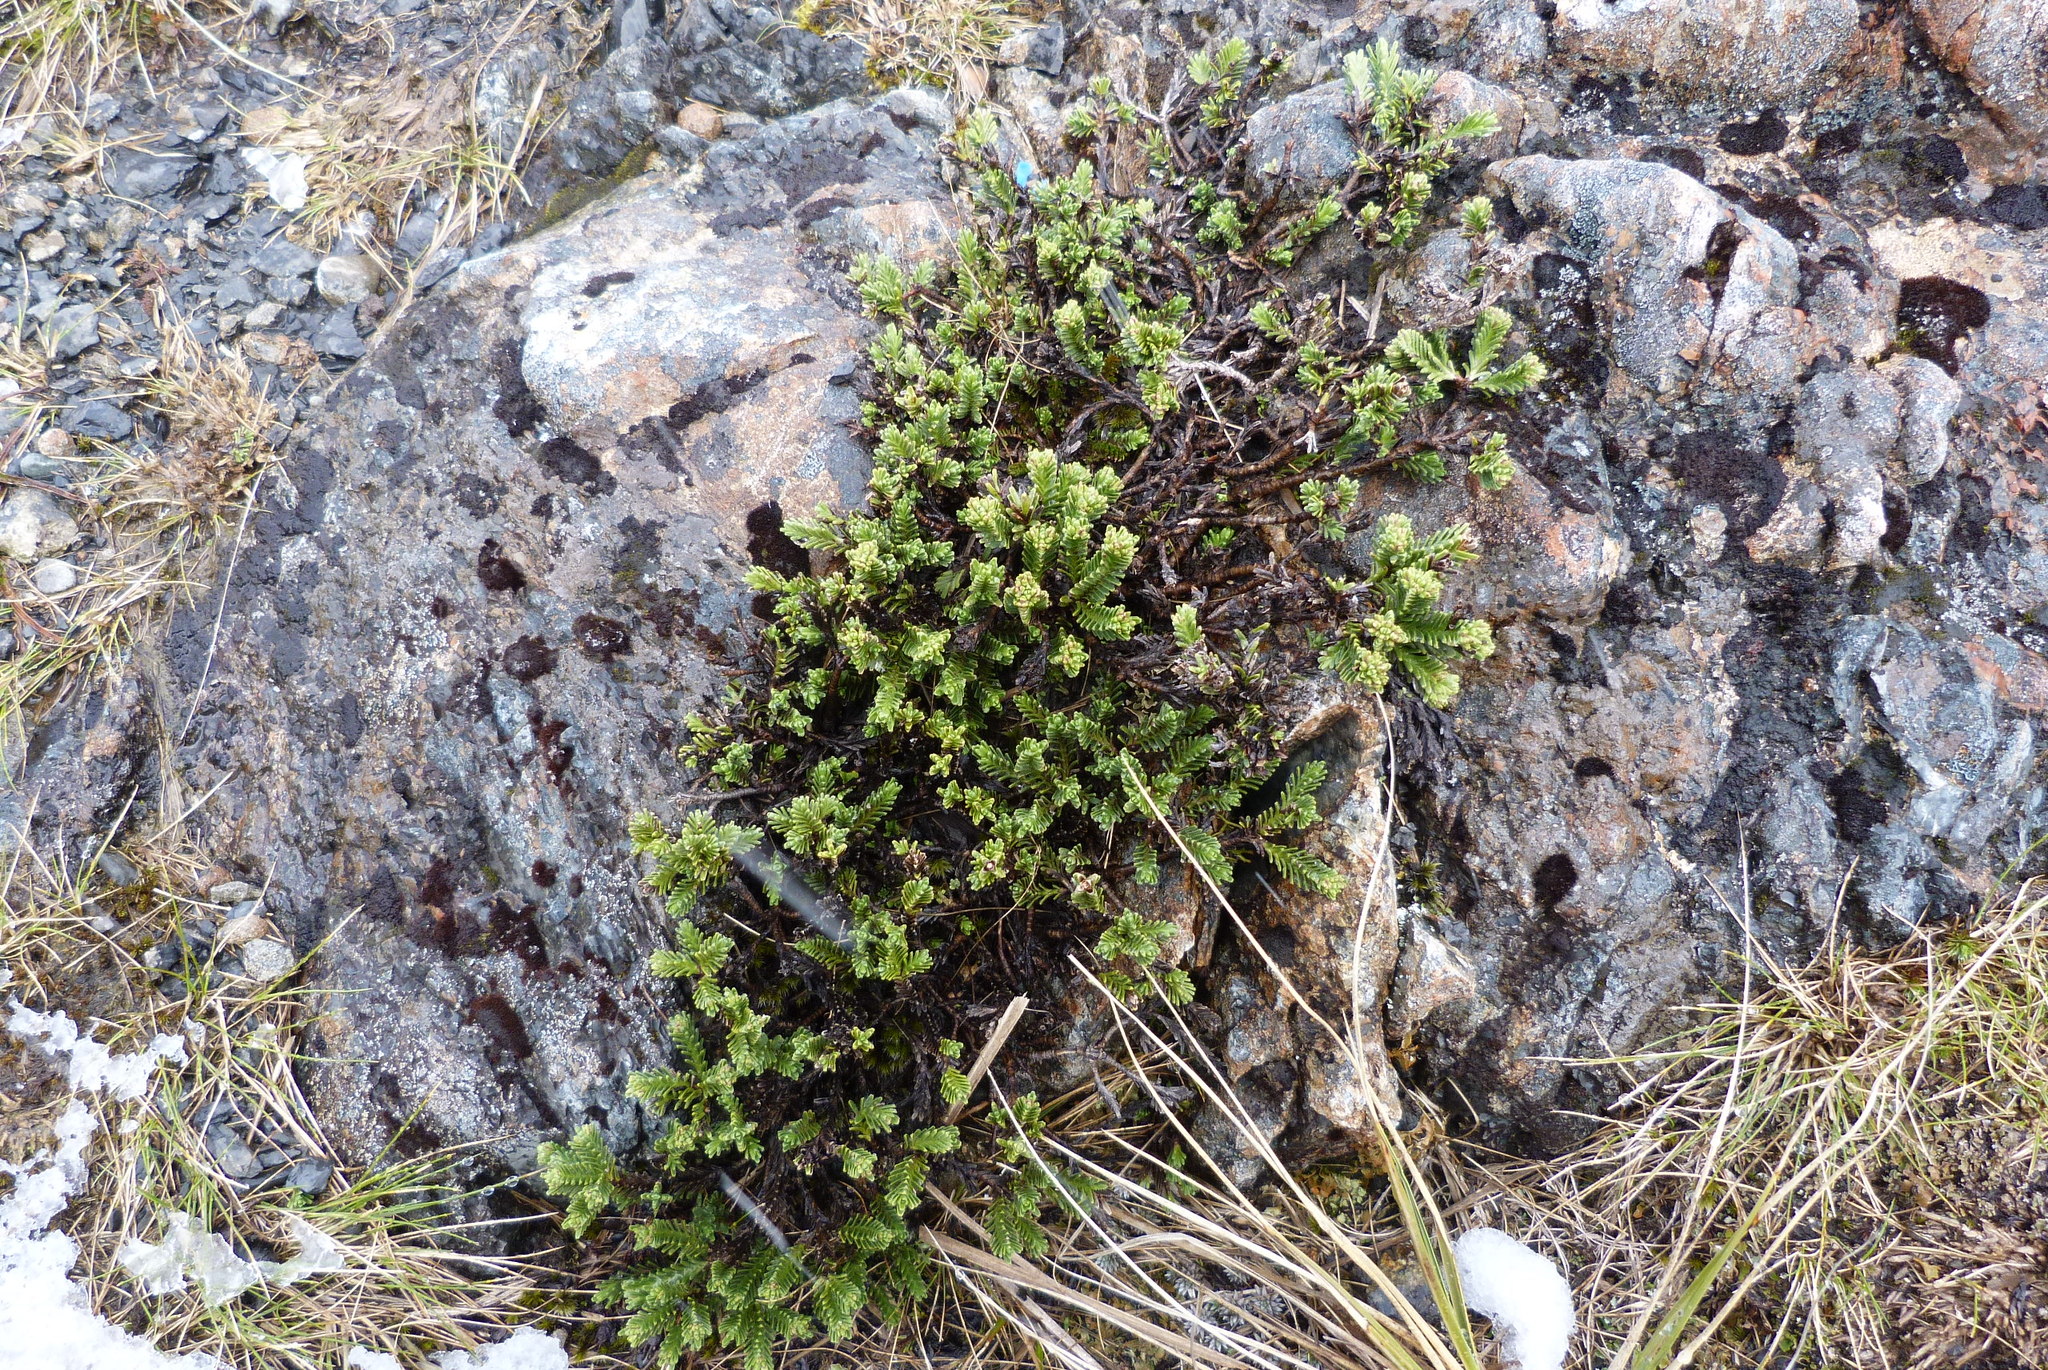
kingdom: Plantae
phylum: Tracheophyta
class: Magnoliopsida
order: Lamiales
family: Plantaginaceae
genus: Veronica
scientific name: Veronica hookeri
